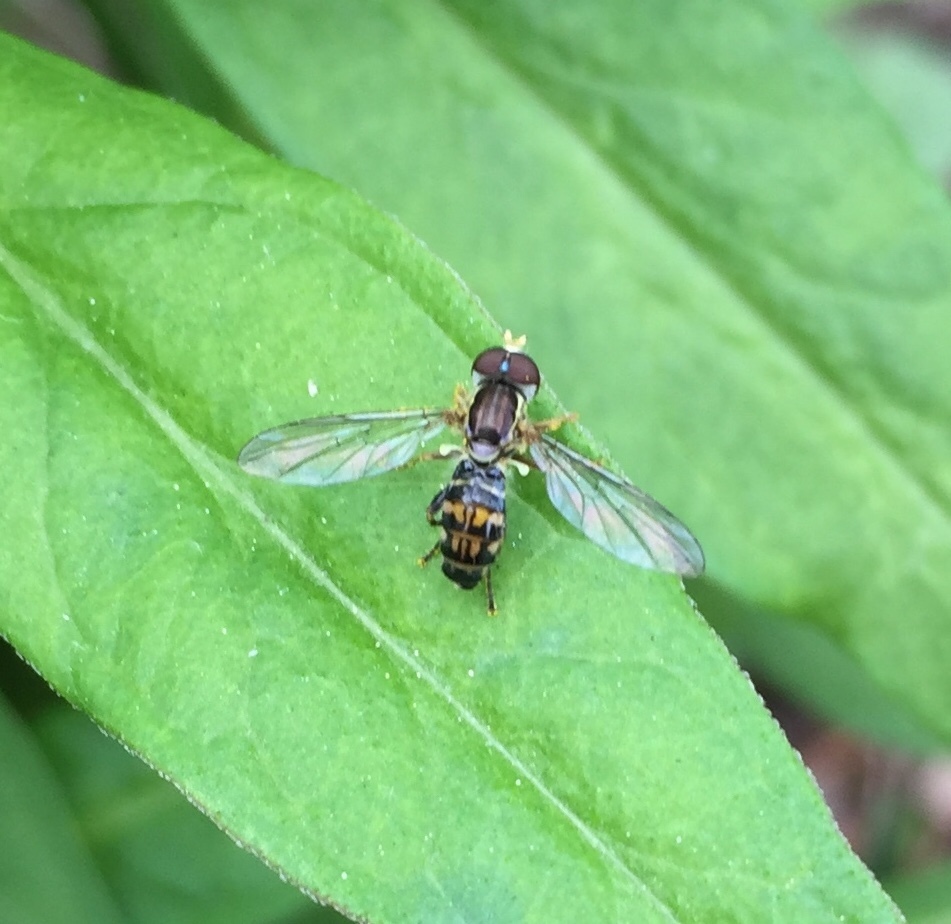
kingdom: Animalia
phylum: Arthropoda
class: Insecta
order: Diptera
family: Syrphidae
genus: Toxomerus
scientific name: Toxomerus geminatus
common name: Eastern calligrapher
